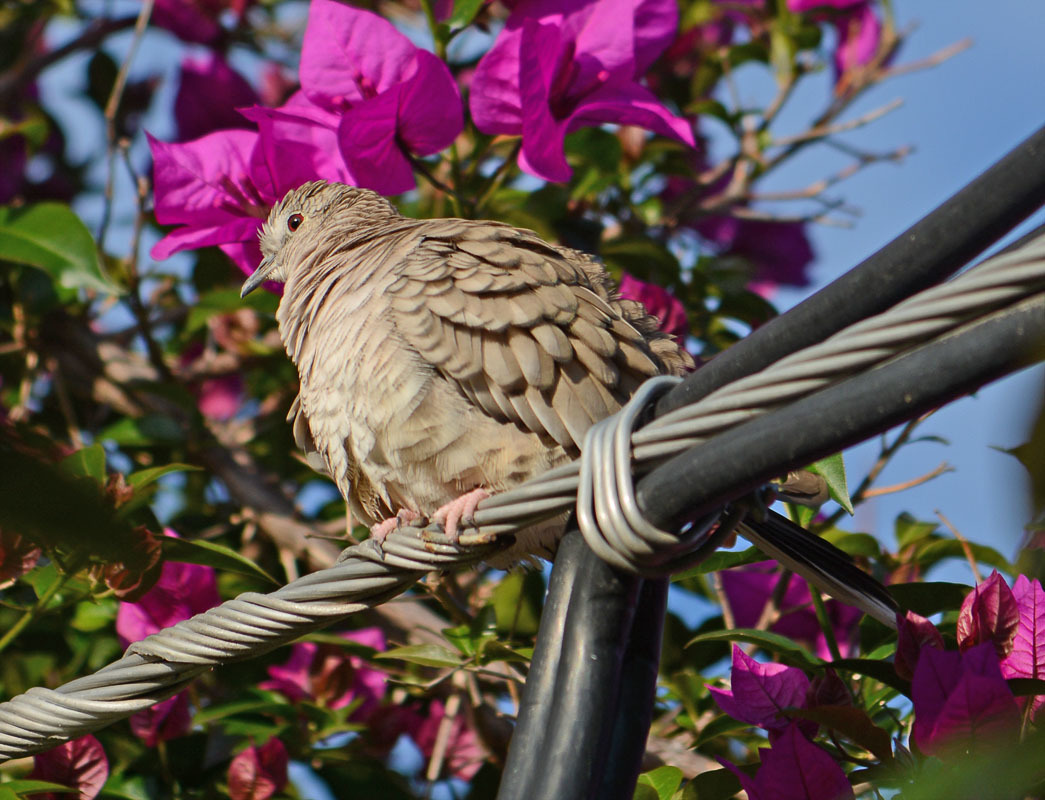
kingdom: Animalia
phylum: Chordata
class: Aves
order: Columbiformes
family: Columbidae
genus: Columbina
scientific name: Columbina inca
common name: Inca dove
